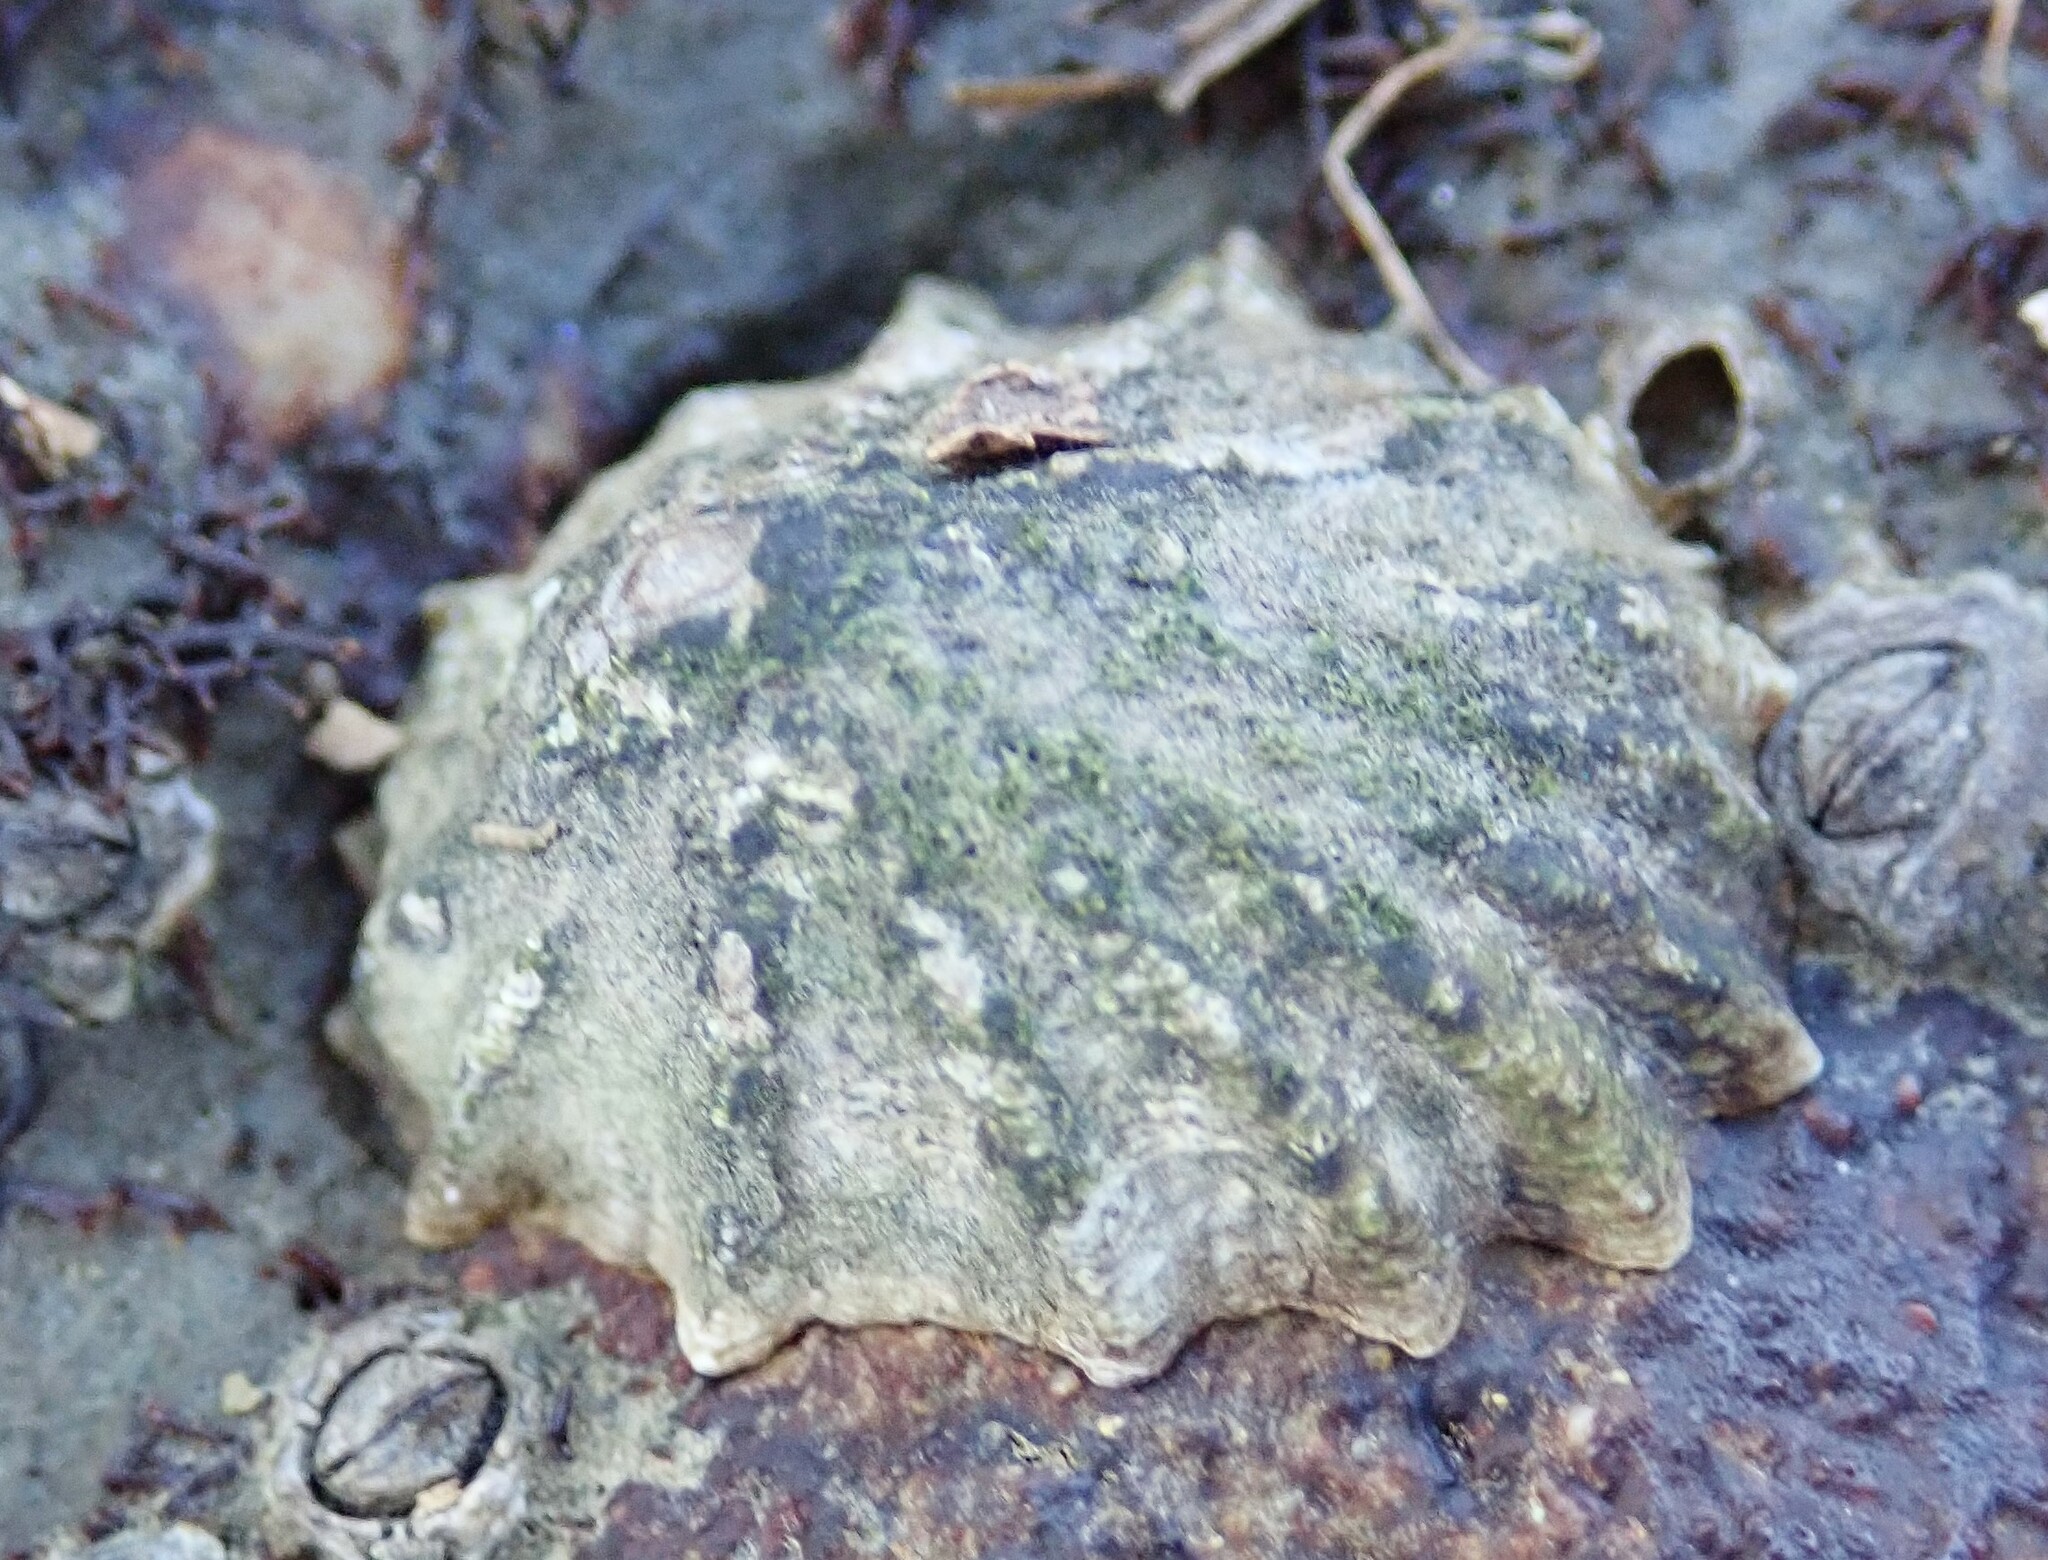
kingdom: Animalia
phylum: Mollusca
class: Gastropoda
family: Lottiidae
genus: Lottia
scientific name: Lottia scabra
